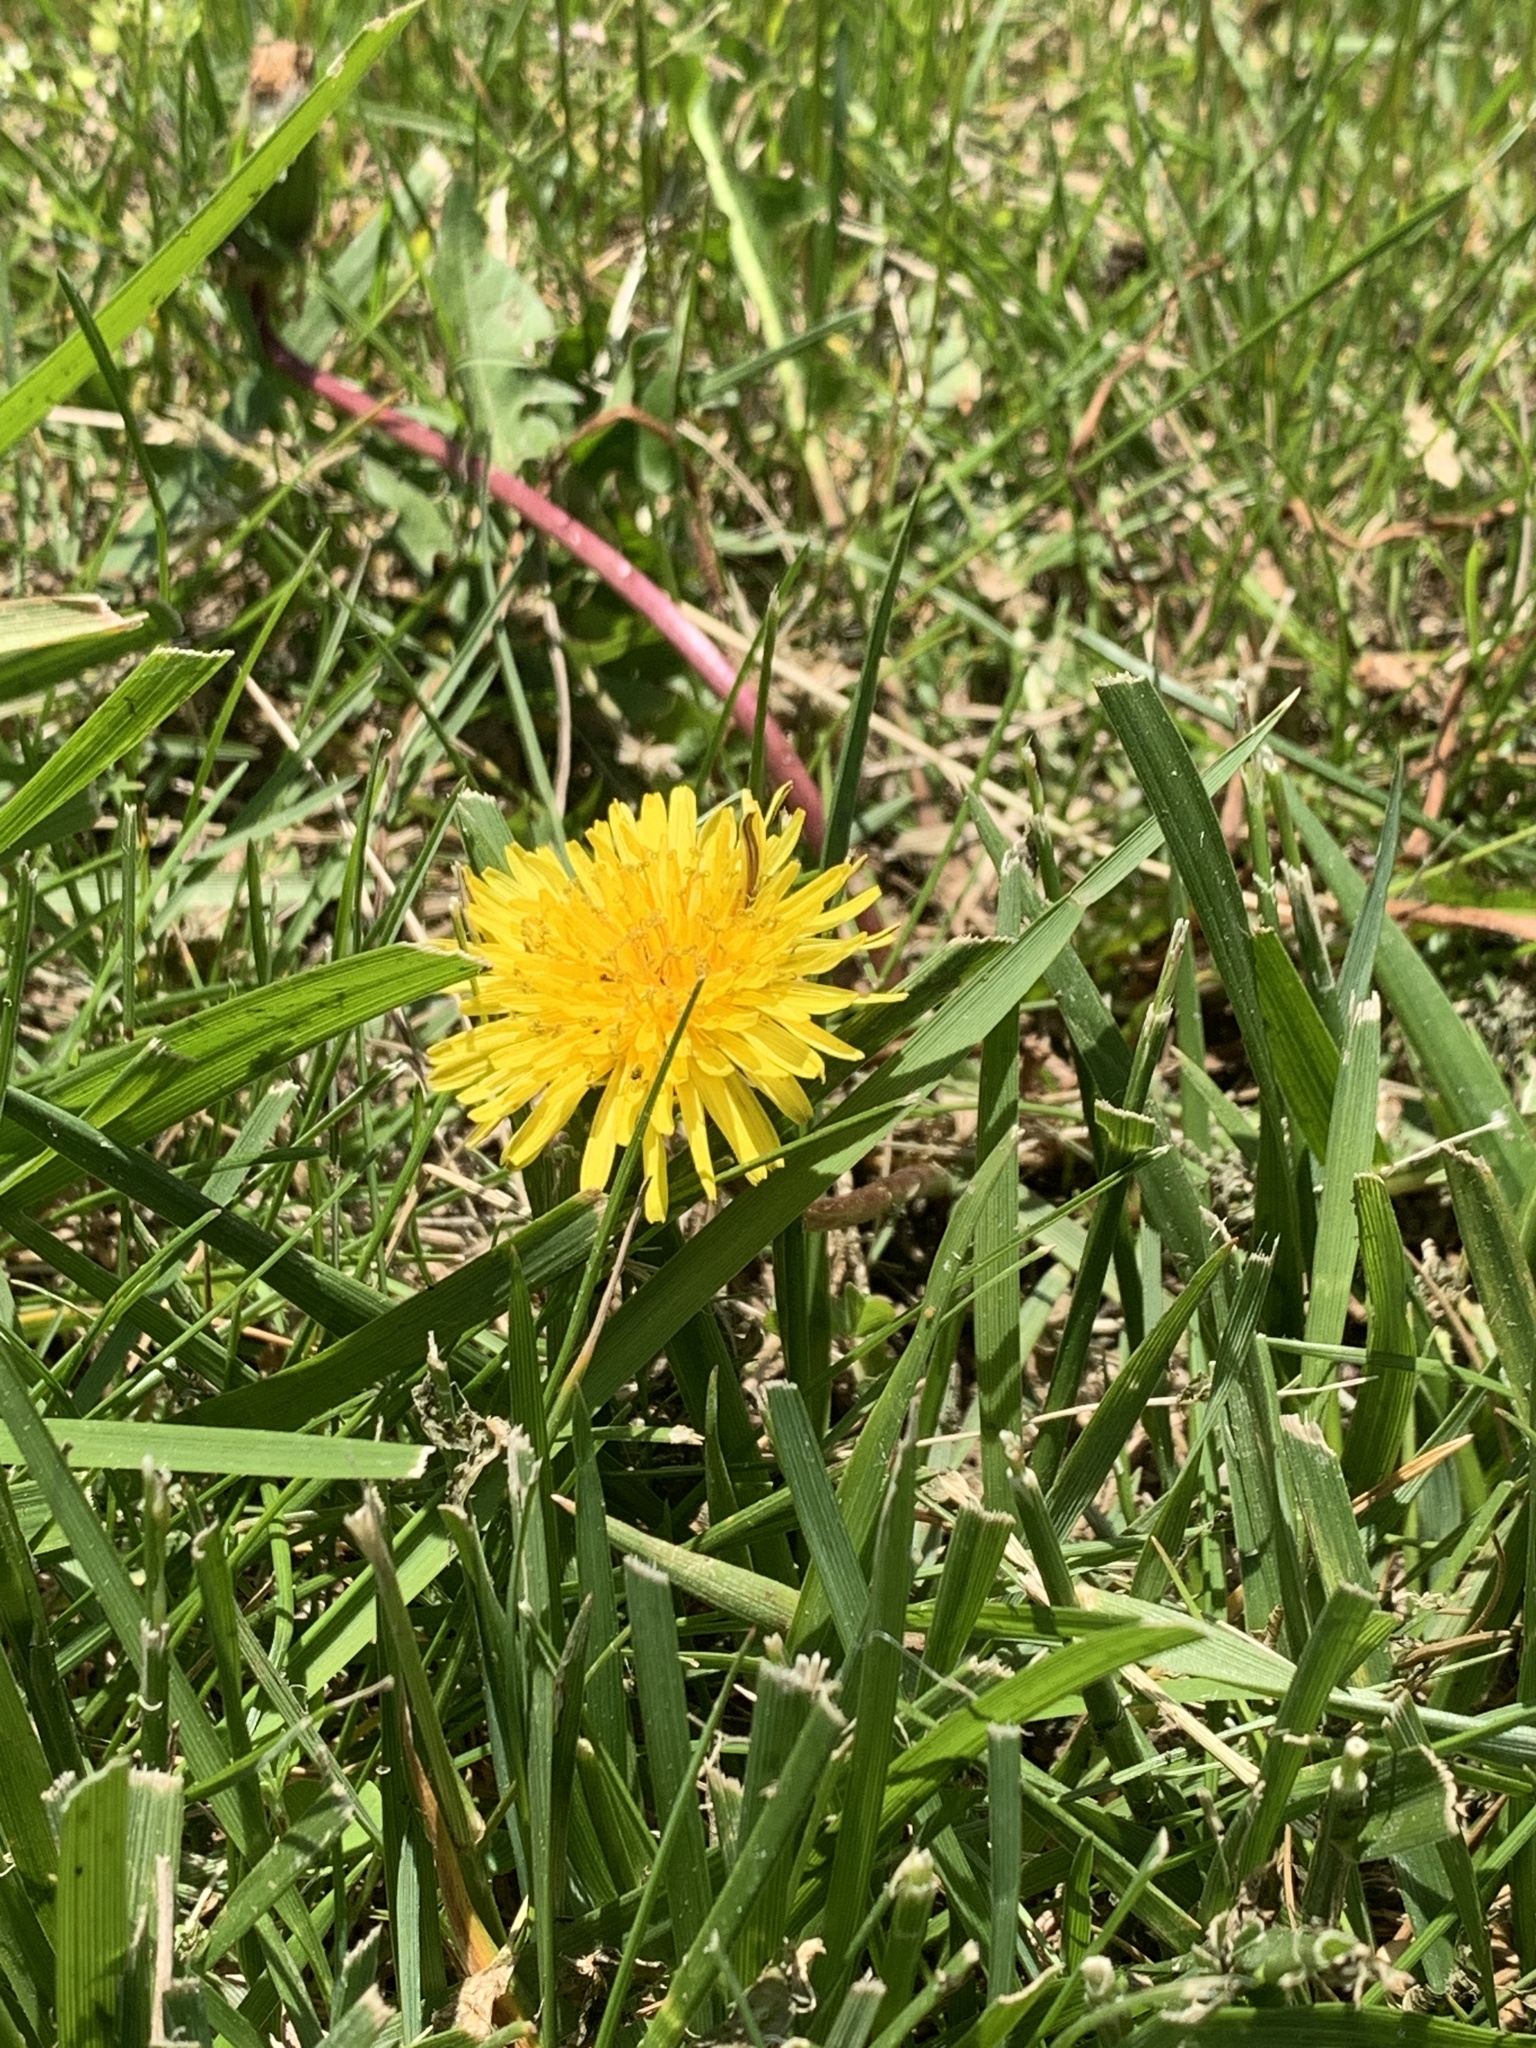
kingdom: Plantae
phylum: Tracheophyta
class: Magnoliopsida
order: Asterales
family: Asteraceae
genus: Taraxacum
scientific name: Taraxacum
